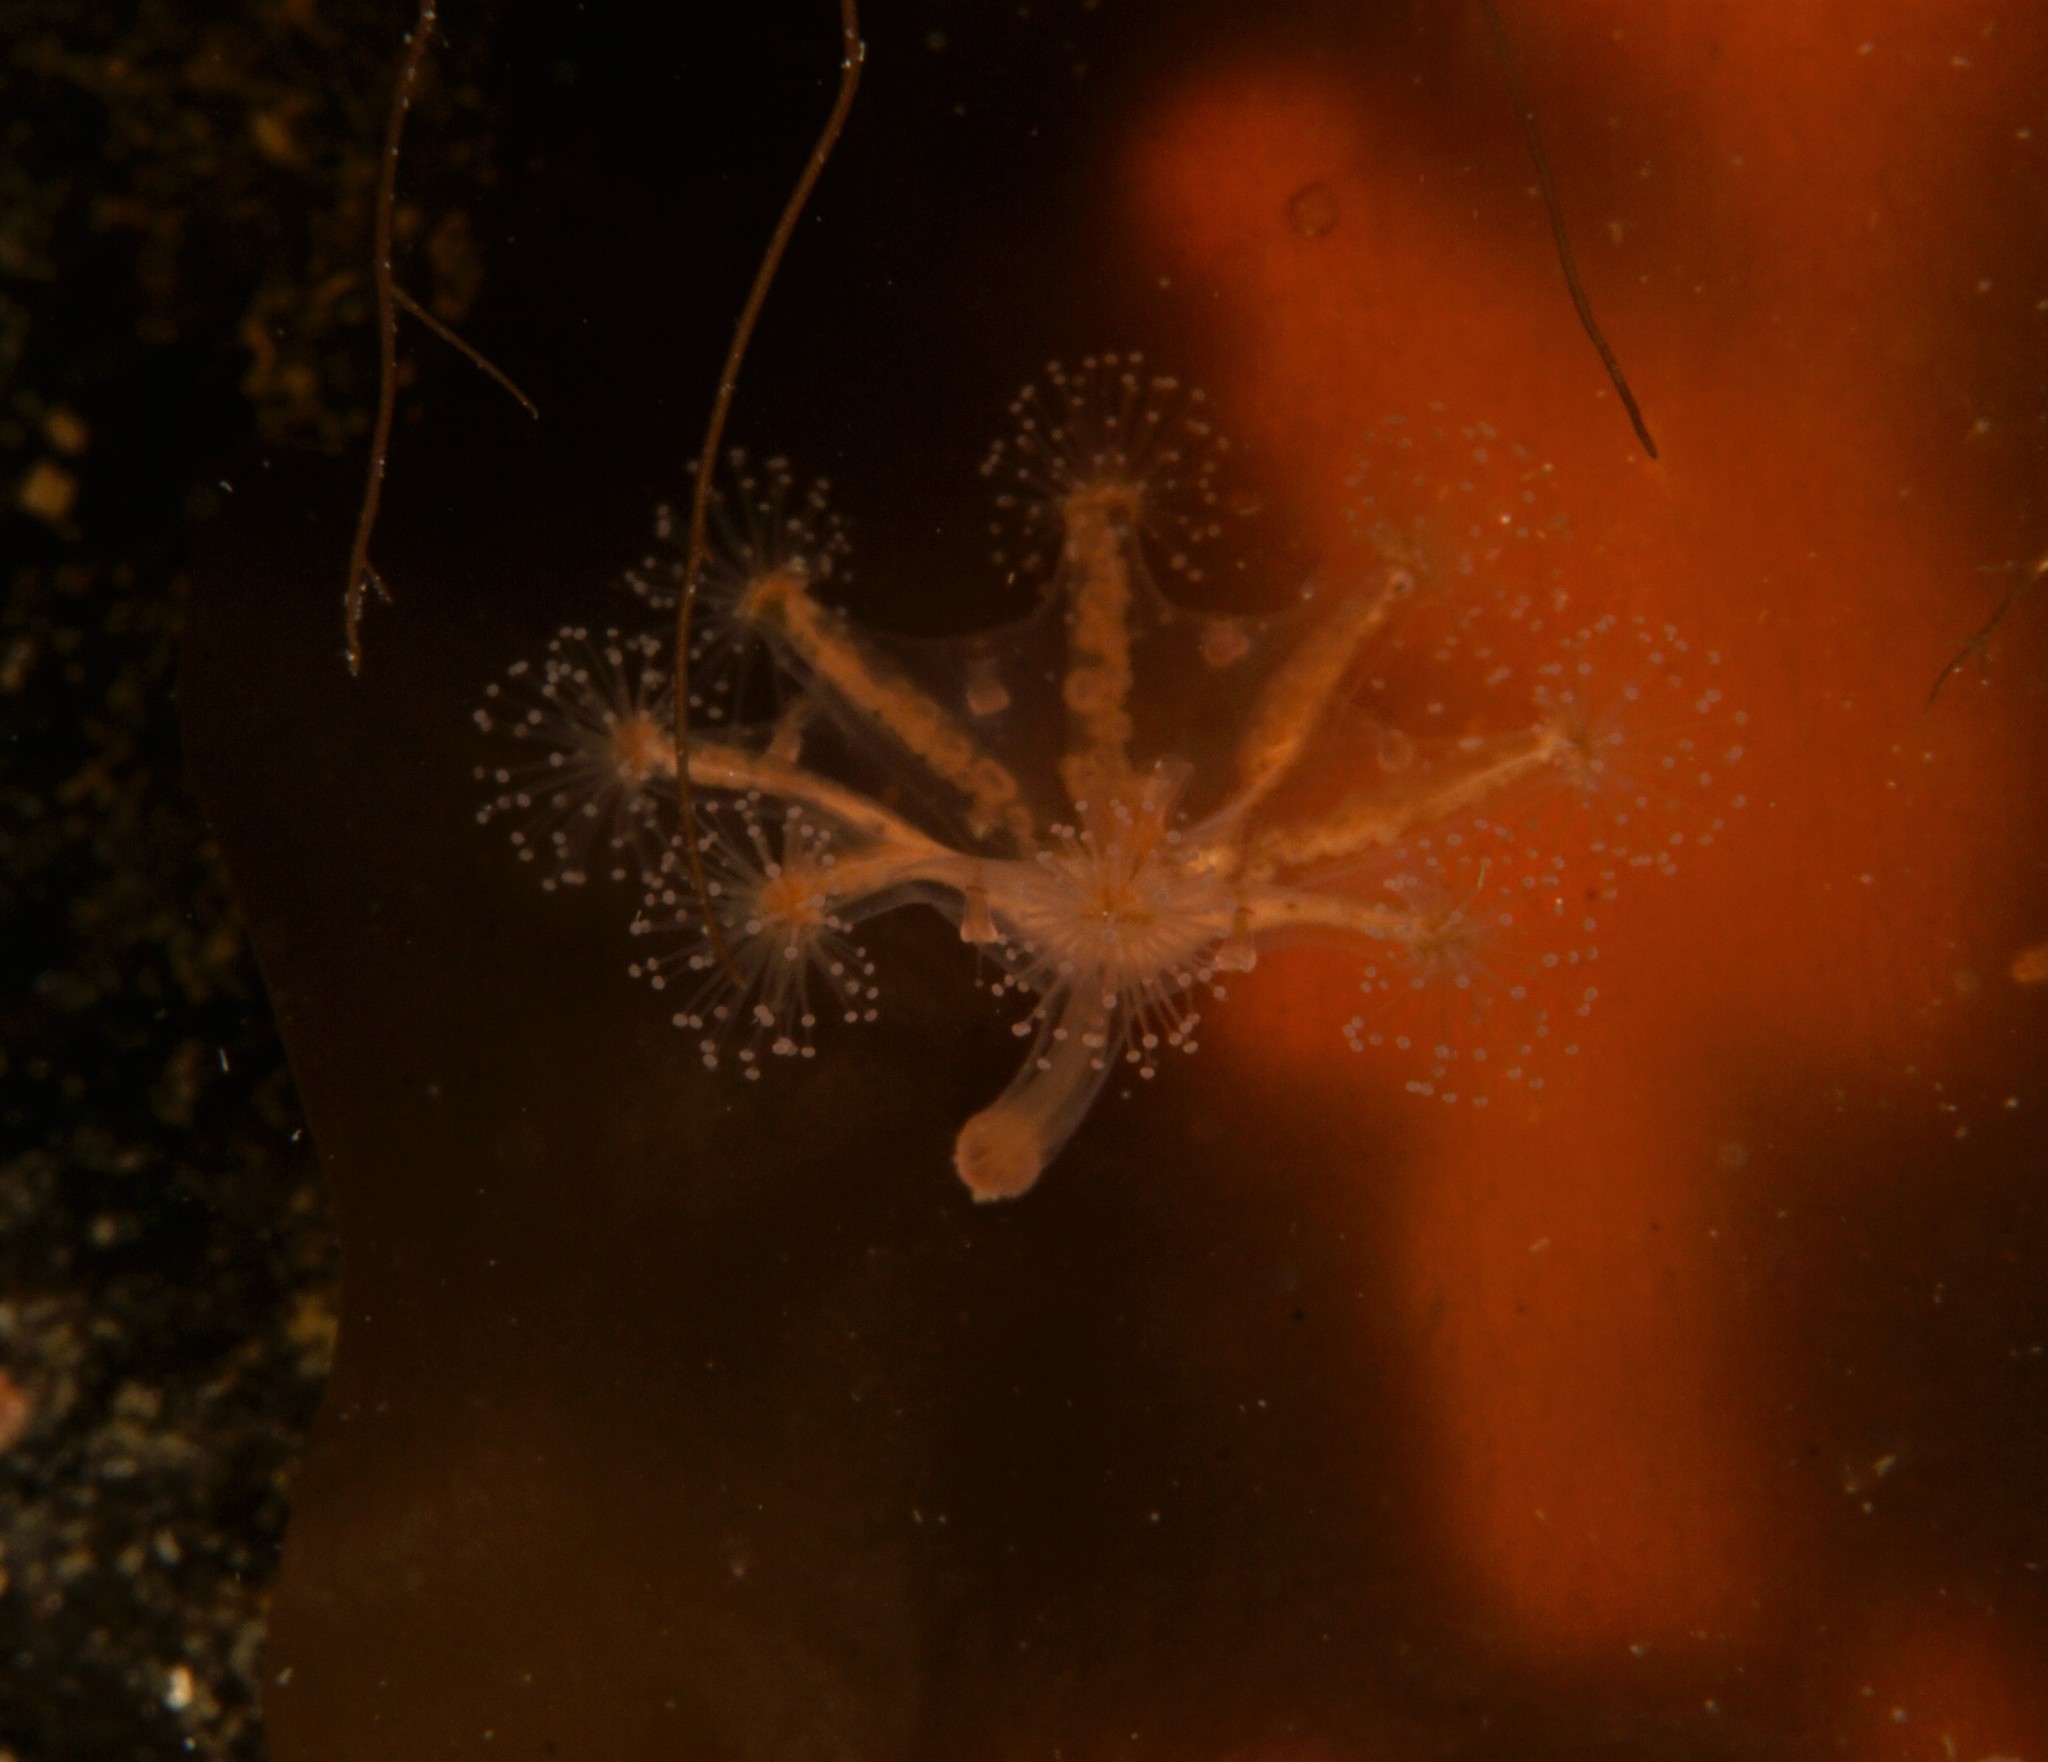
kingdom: Animalia
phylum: Cnidaria
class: Staurozoa
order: Stauromedusae
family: Haliclystidae
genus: Haliclystus
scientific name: Haliclystus auricula
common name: Kaleidoscope jellyfish
